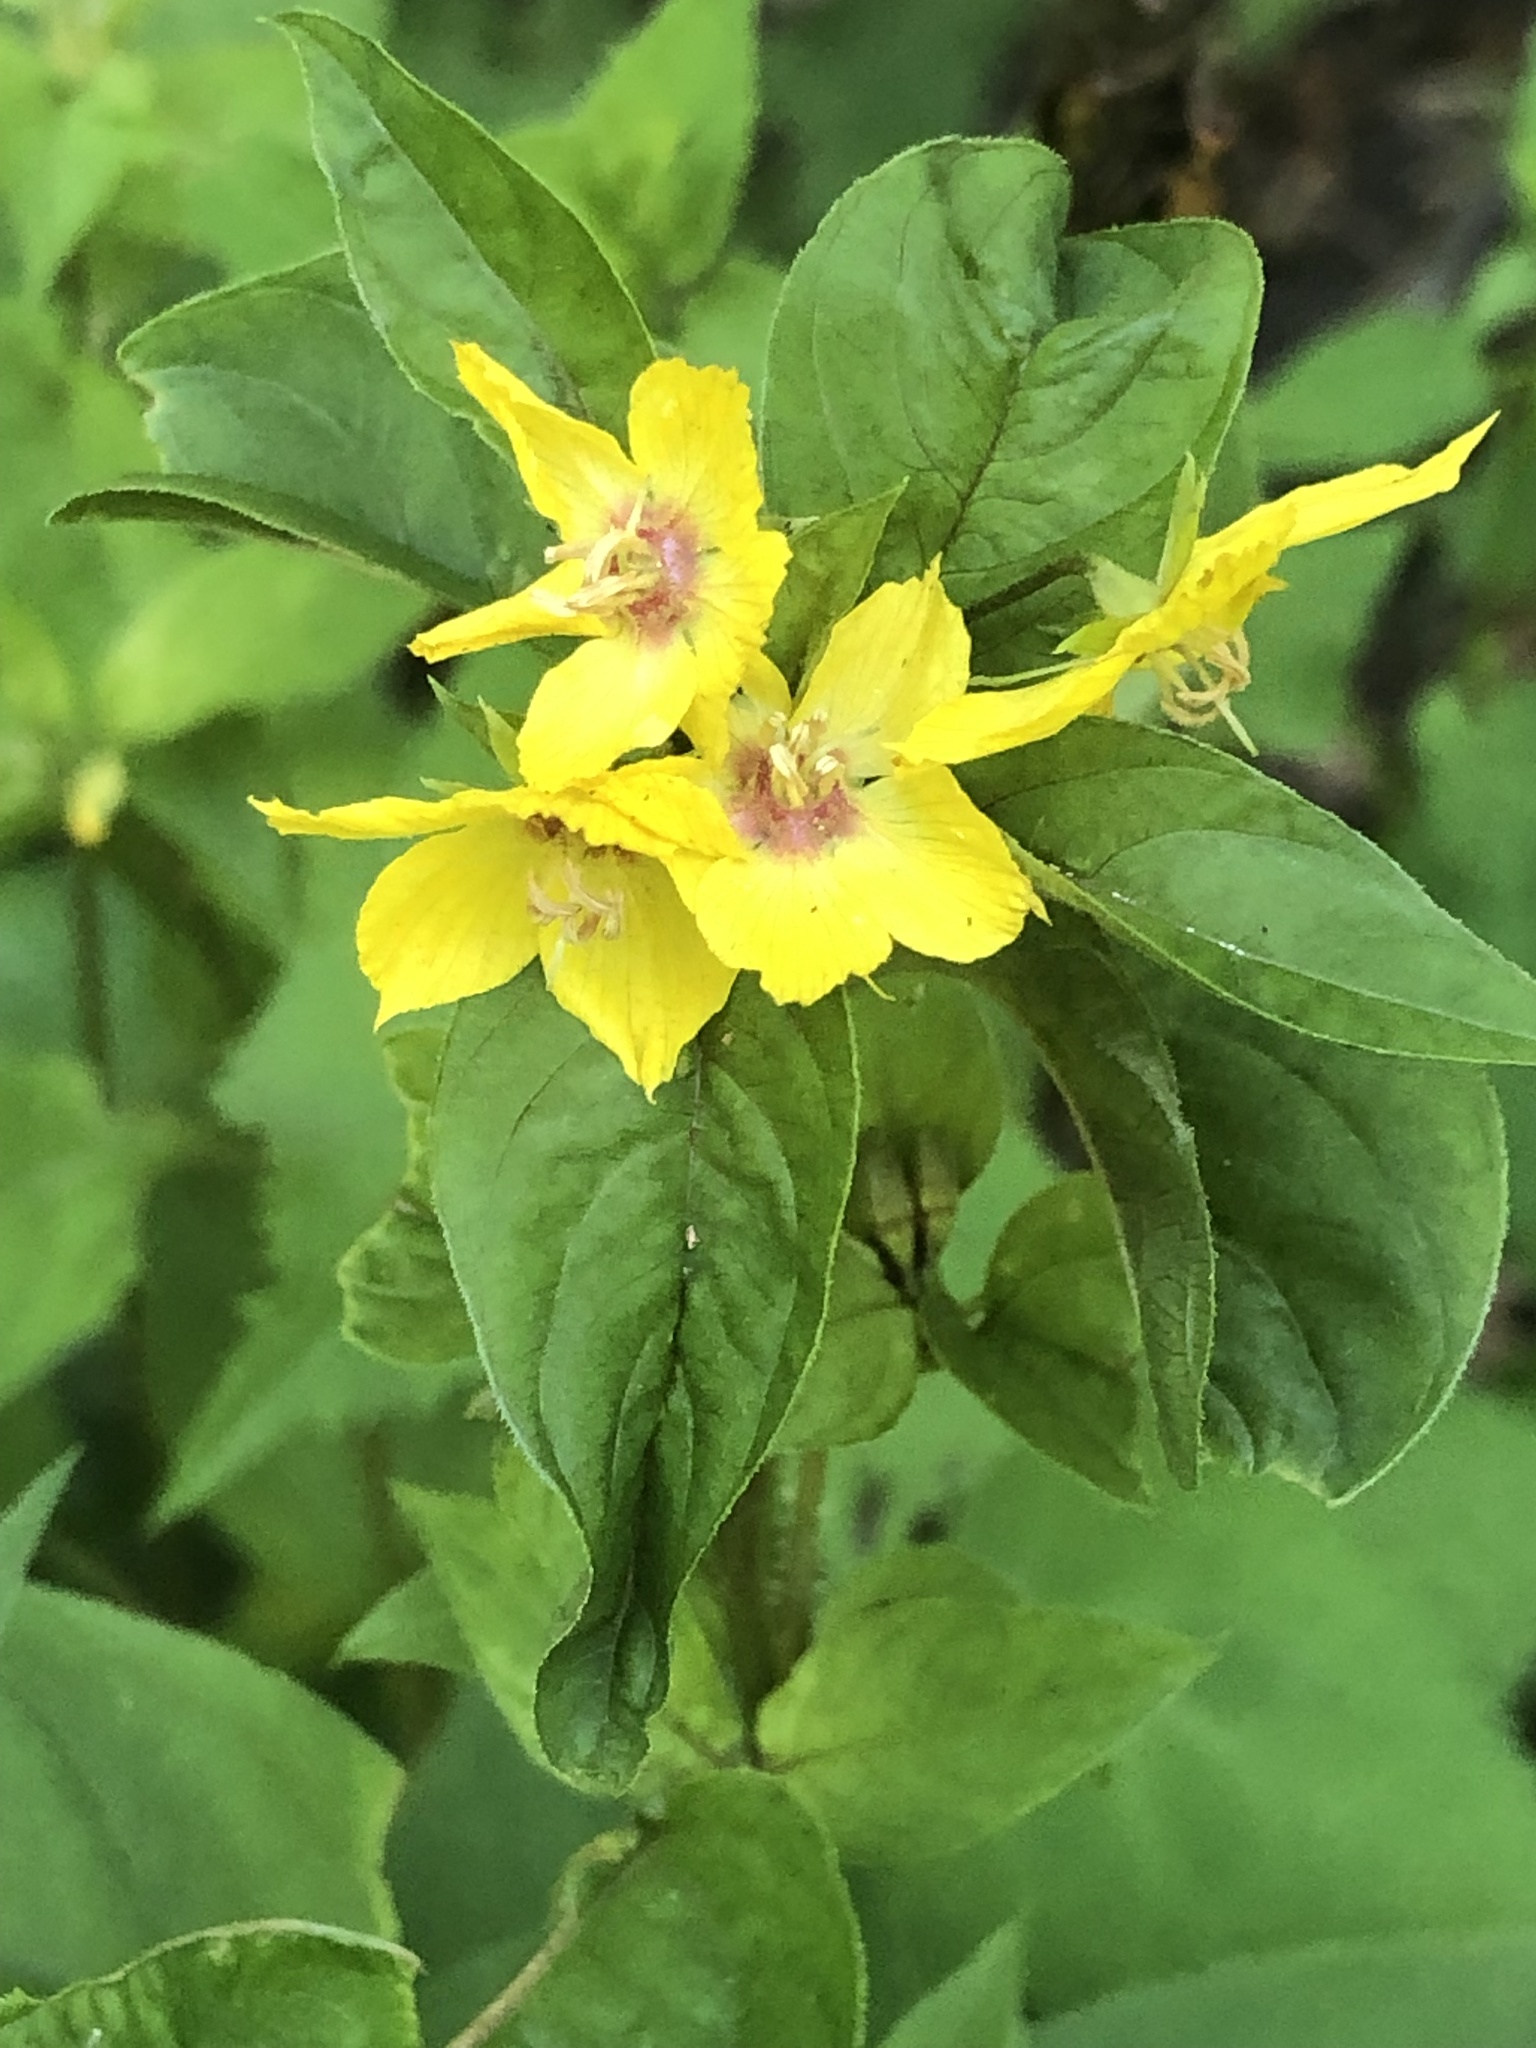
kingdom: Plantae
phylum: Tracheophyta
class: Magnoliopsida
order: Ericales
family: Primulaceae
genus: Lysimachia
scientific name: Lysimachia punctata
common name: Dotted loosestrife
